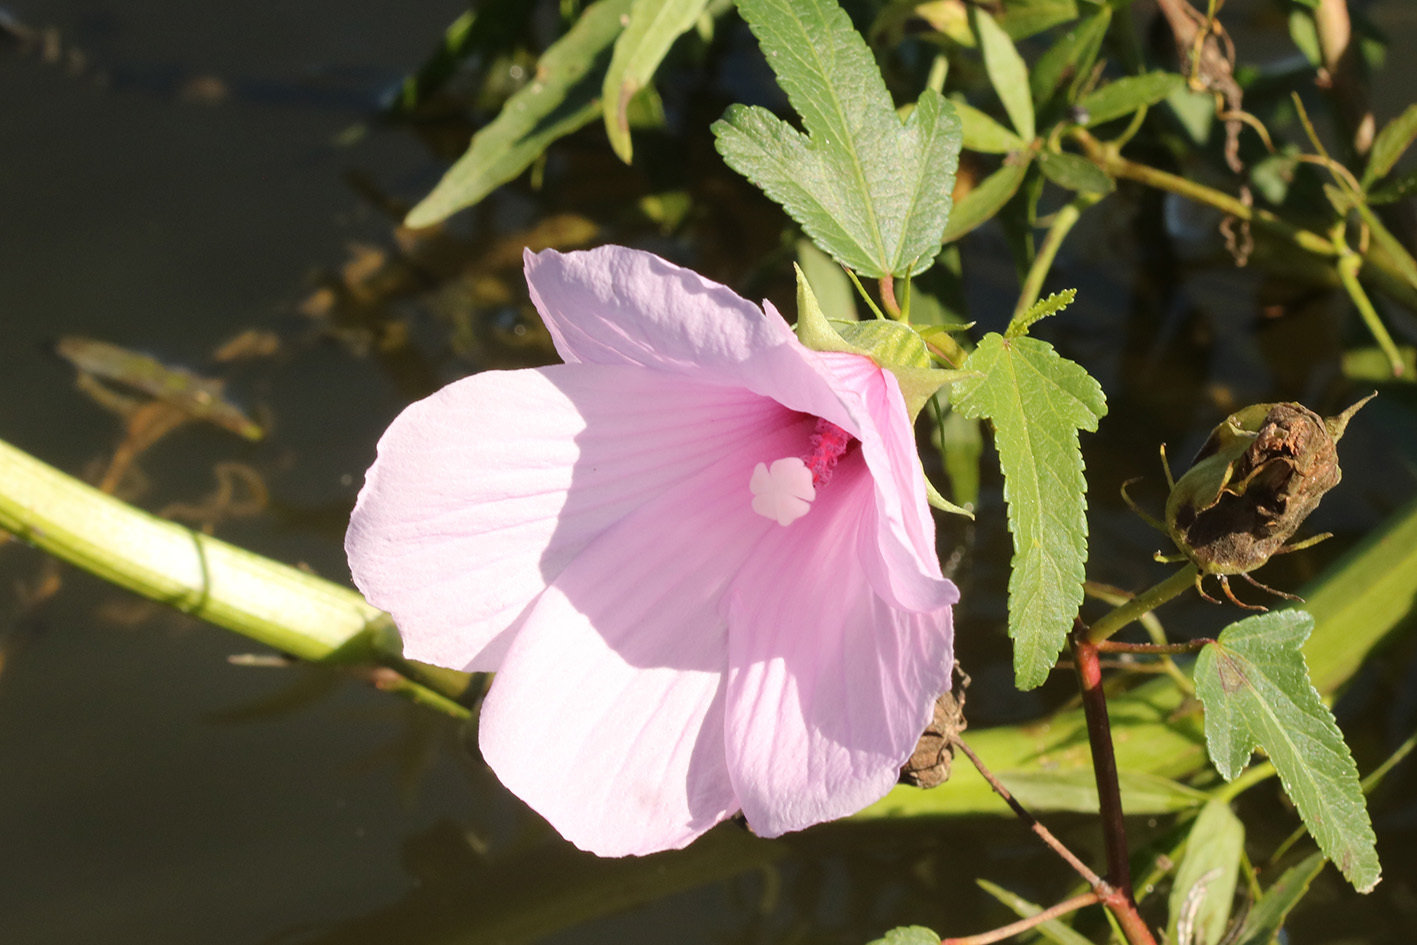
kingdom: Plantae
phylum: Tracheophyta
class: Magnoliopsida
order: Malvales
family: Malvaceae
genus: Hibiscus
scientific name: Hibiscus striatus
